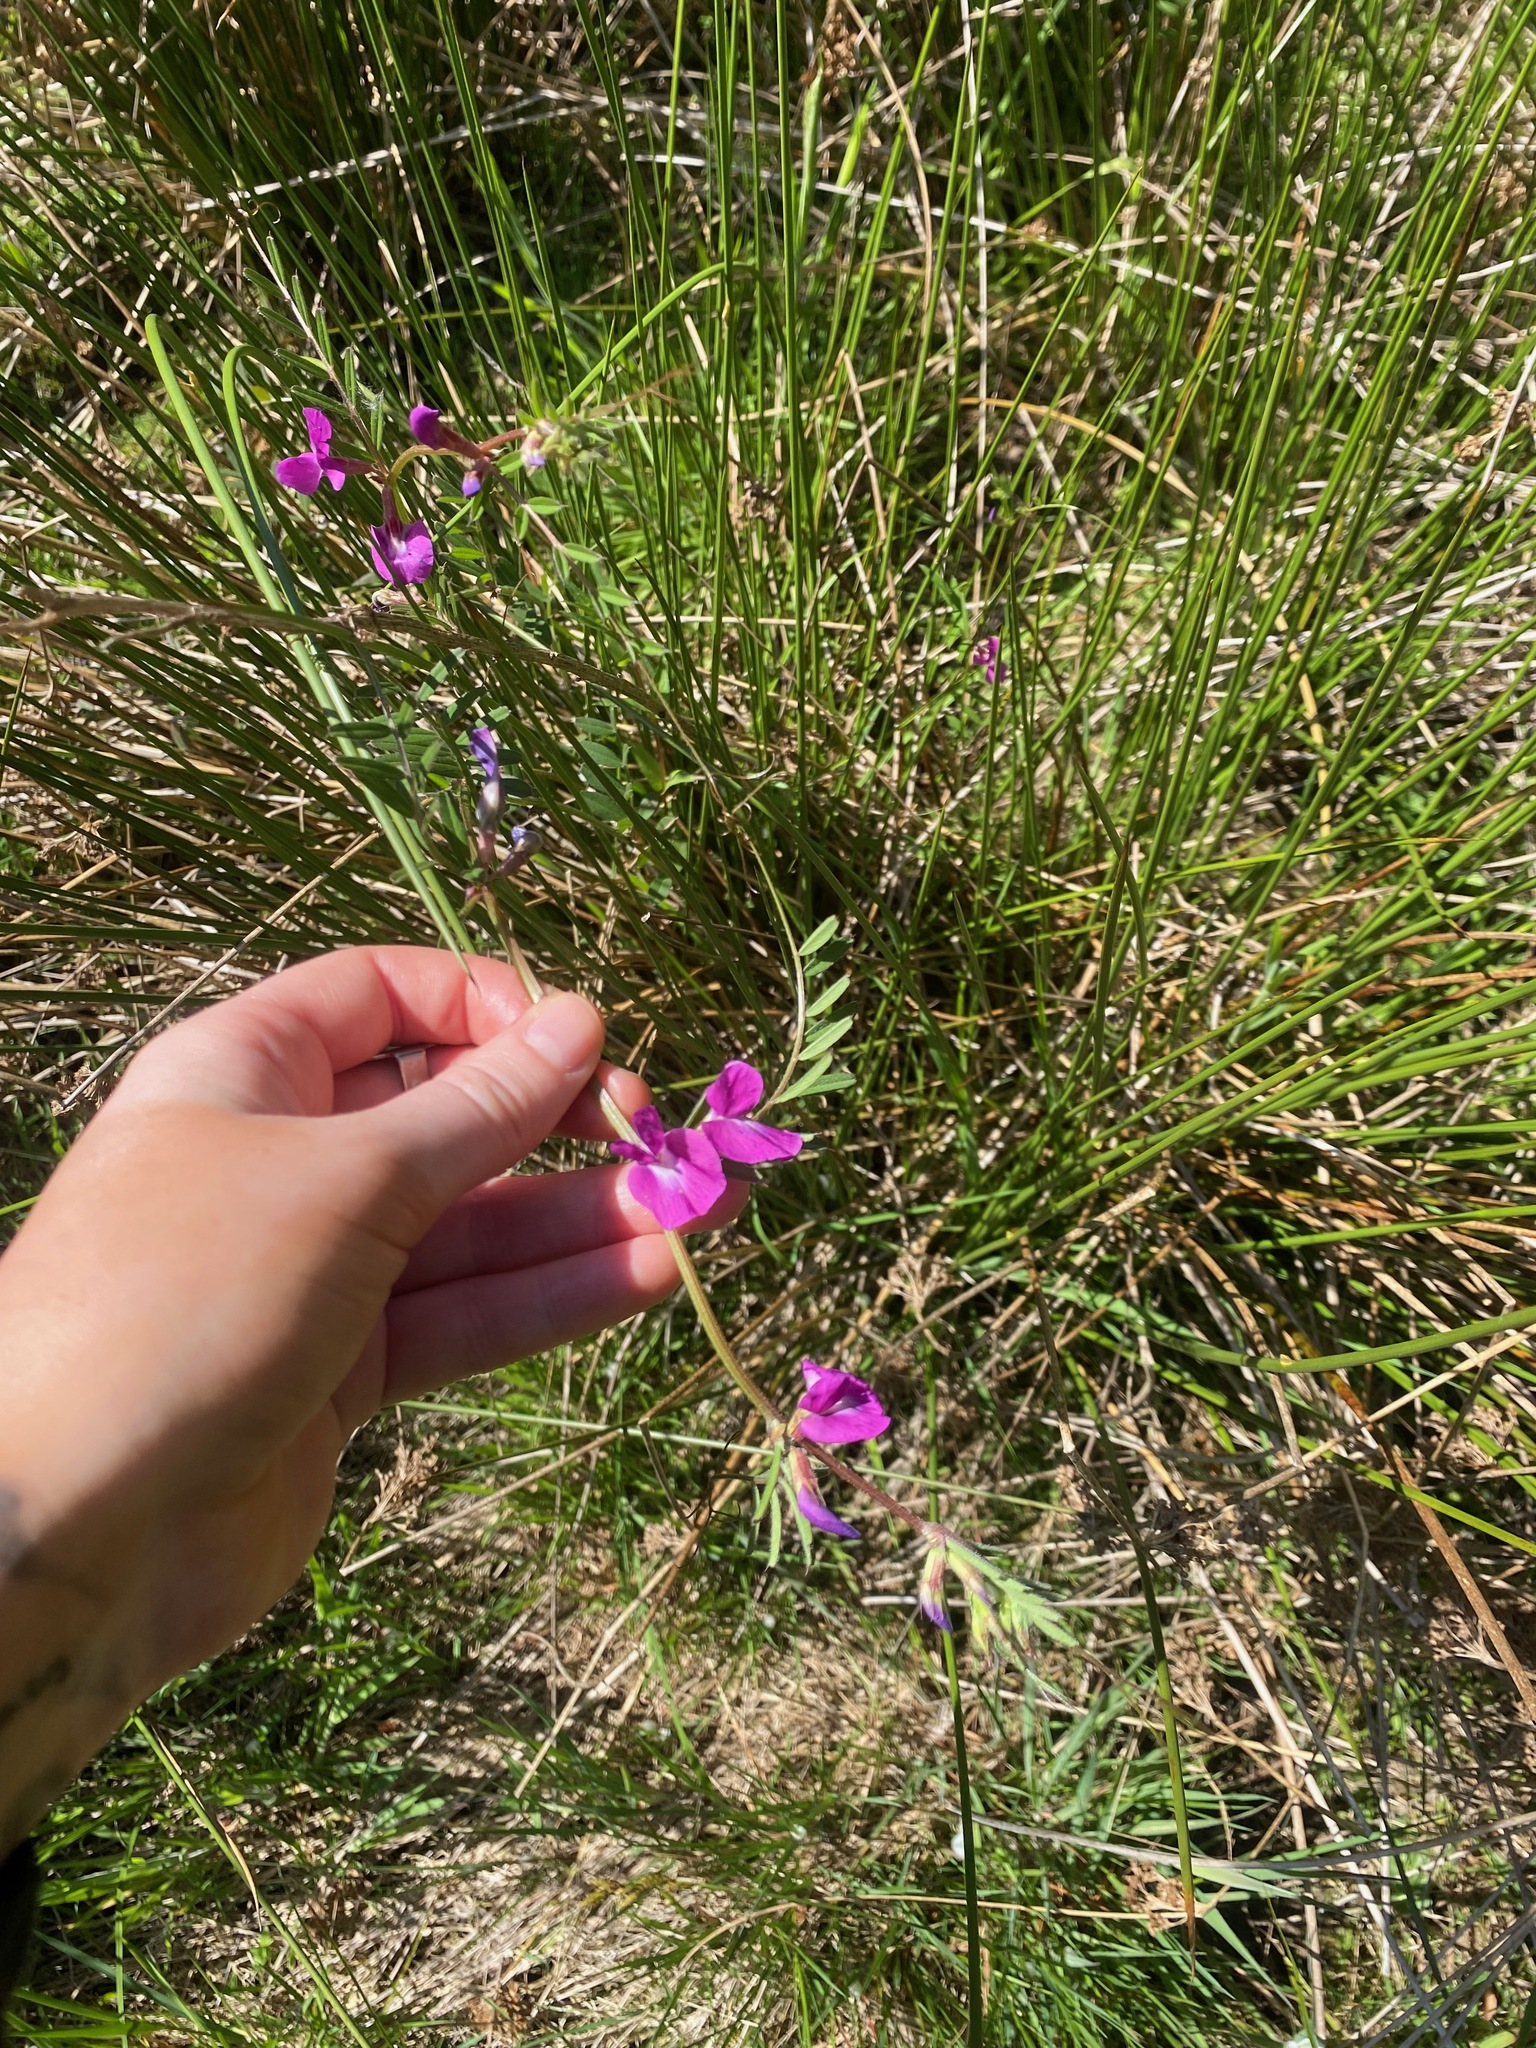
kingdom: Plantae
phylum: Tracheophyta
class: Magnoliopsida
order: Fabales
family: Fabaceae
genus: Vicia
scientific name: Vicia sativa
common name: Garden vetch
